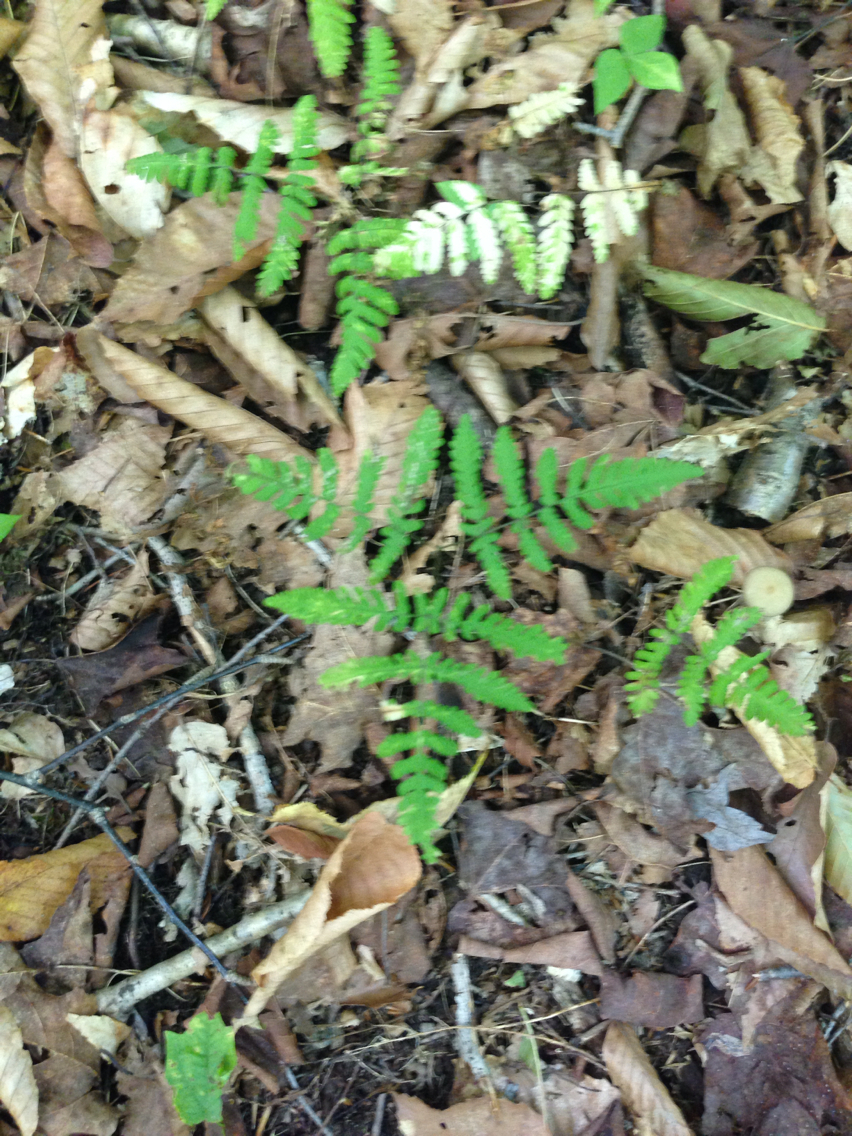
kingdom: Plantae
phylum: Tracheophyta
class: Polypodiopsida
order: Polypodiales
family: Cystopteridaceae
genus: Gymnocarpium
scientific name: Gymnocarpium dryopteris
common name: Oak fern
